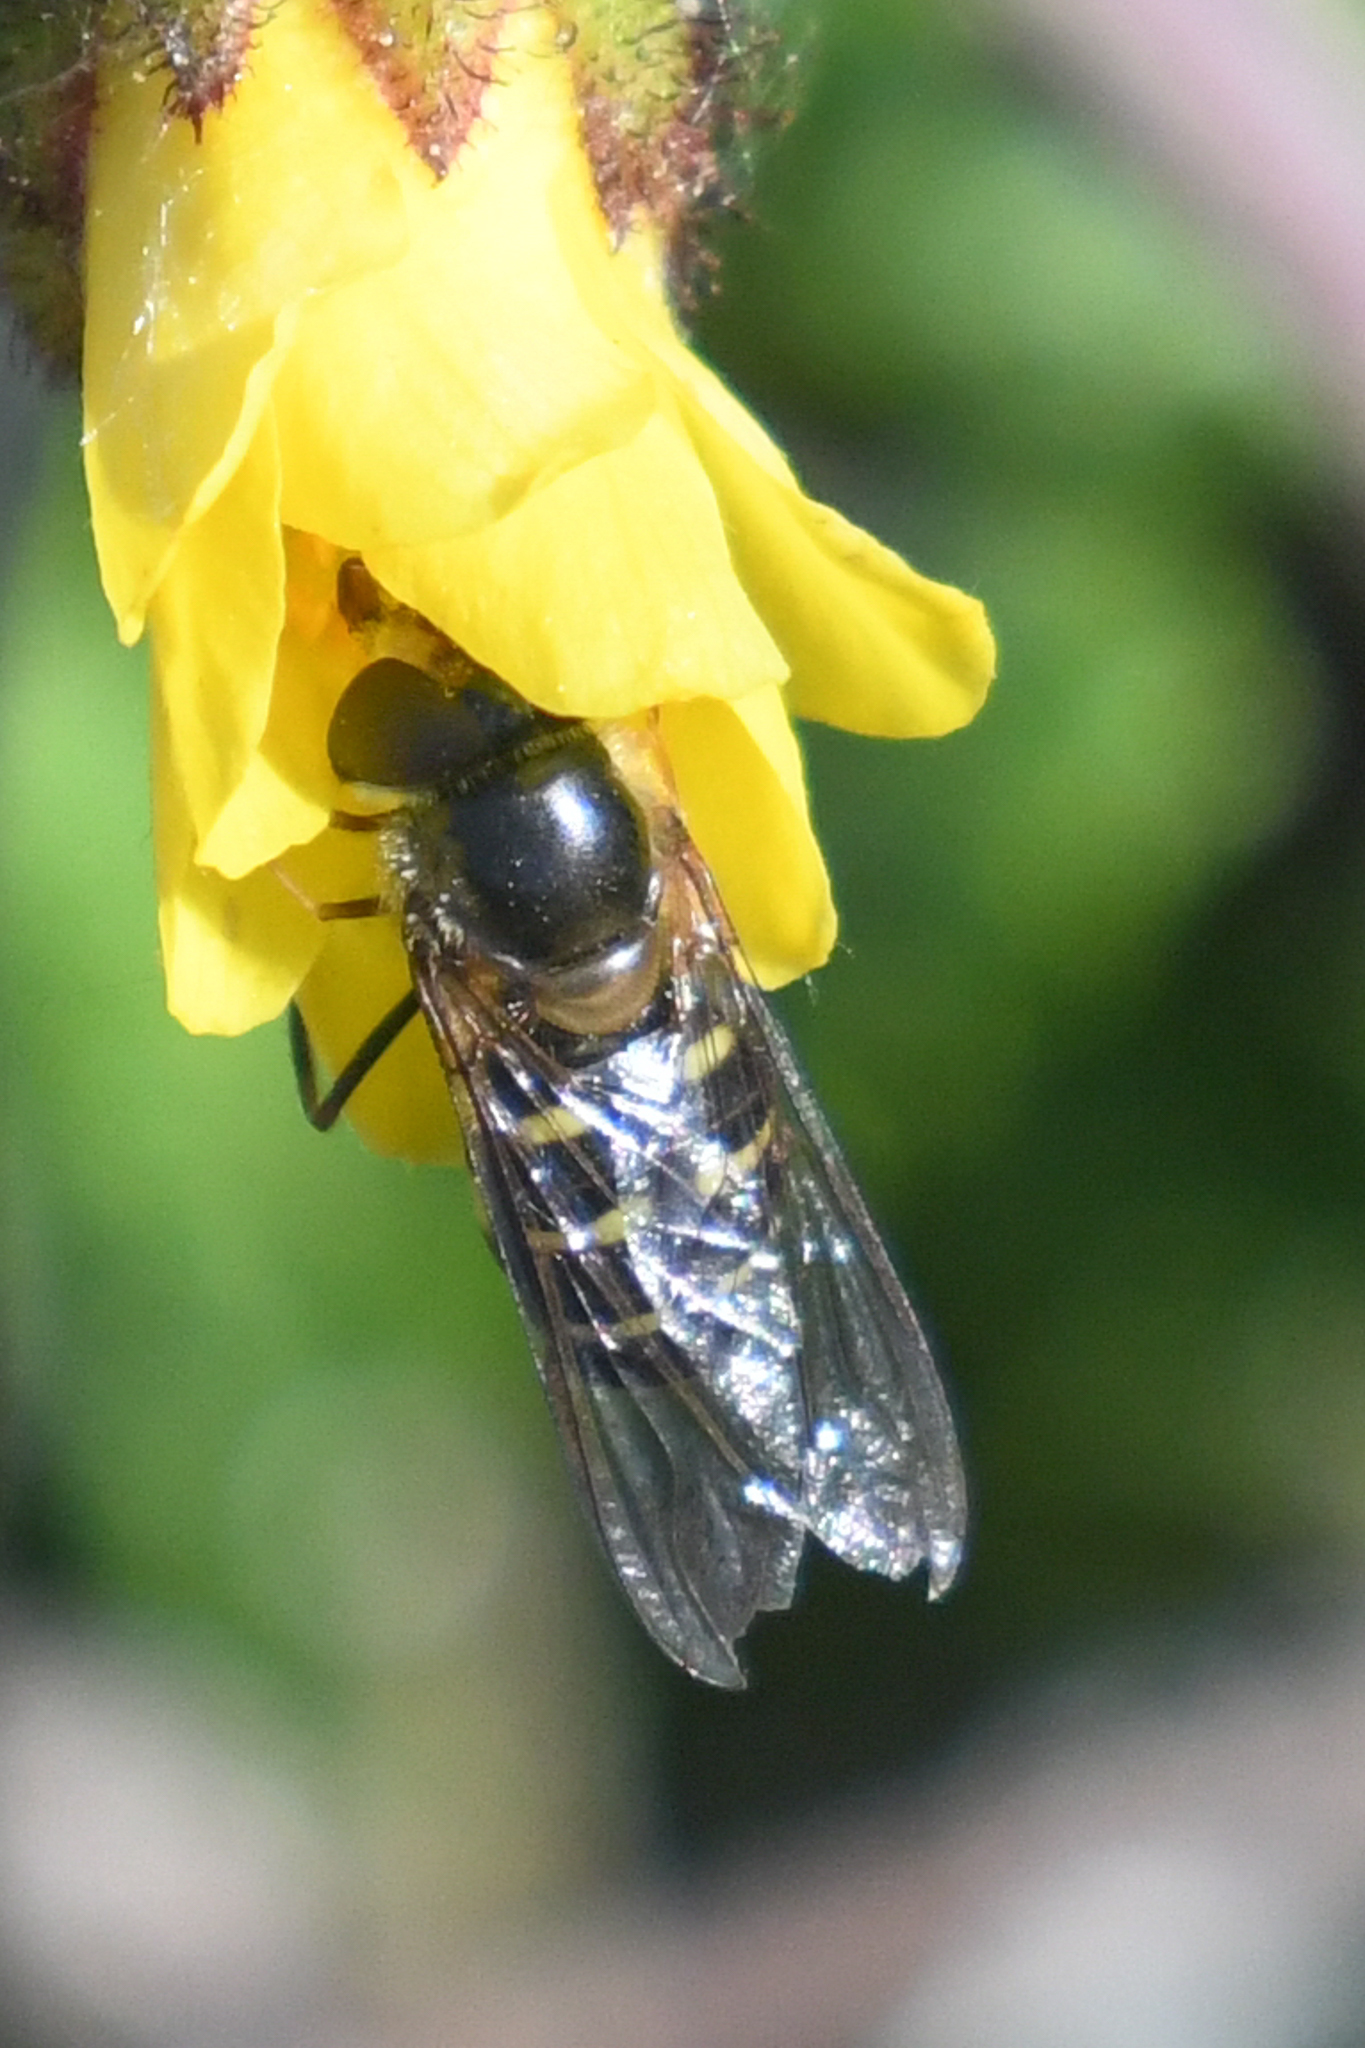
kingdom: Animalia
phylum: Arthropoda
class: Insecta
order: Diptera
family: Syrphidae
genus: Lapposyrphus
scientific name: Lapposyrphus lapponicus
